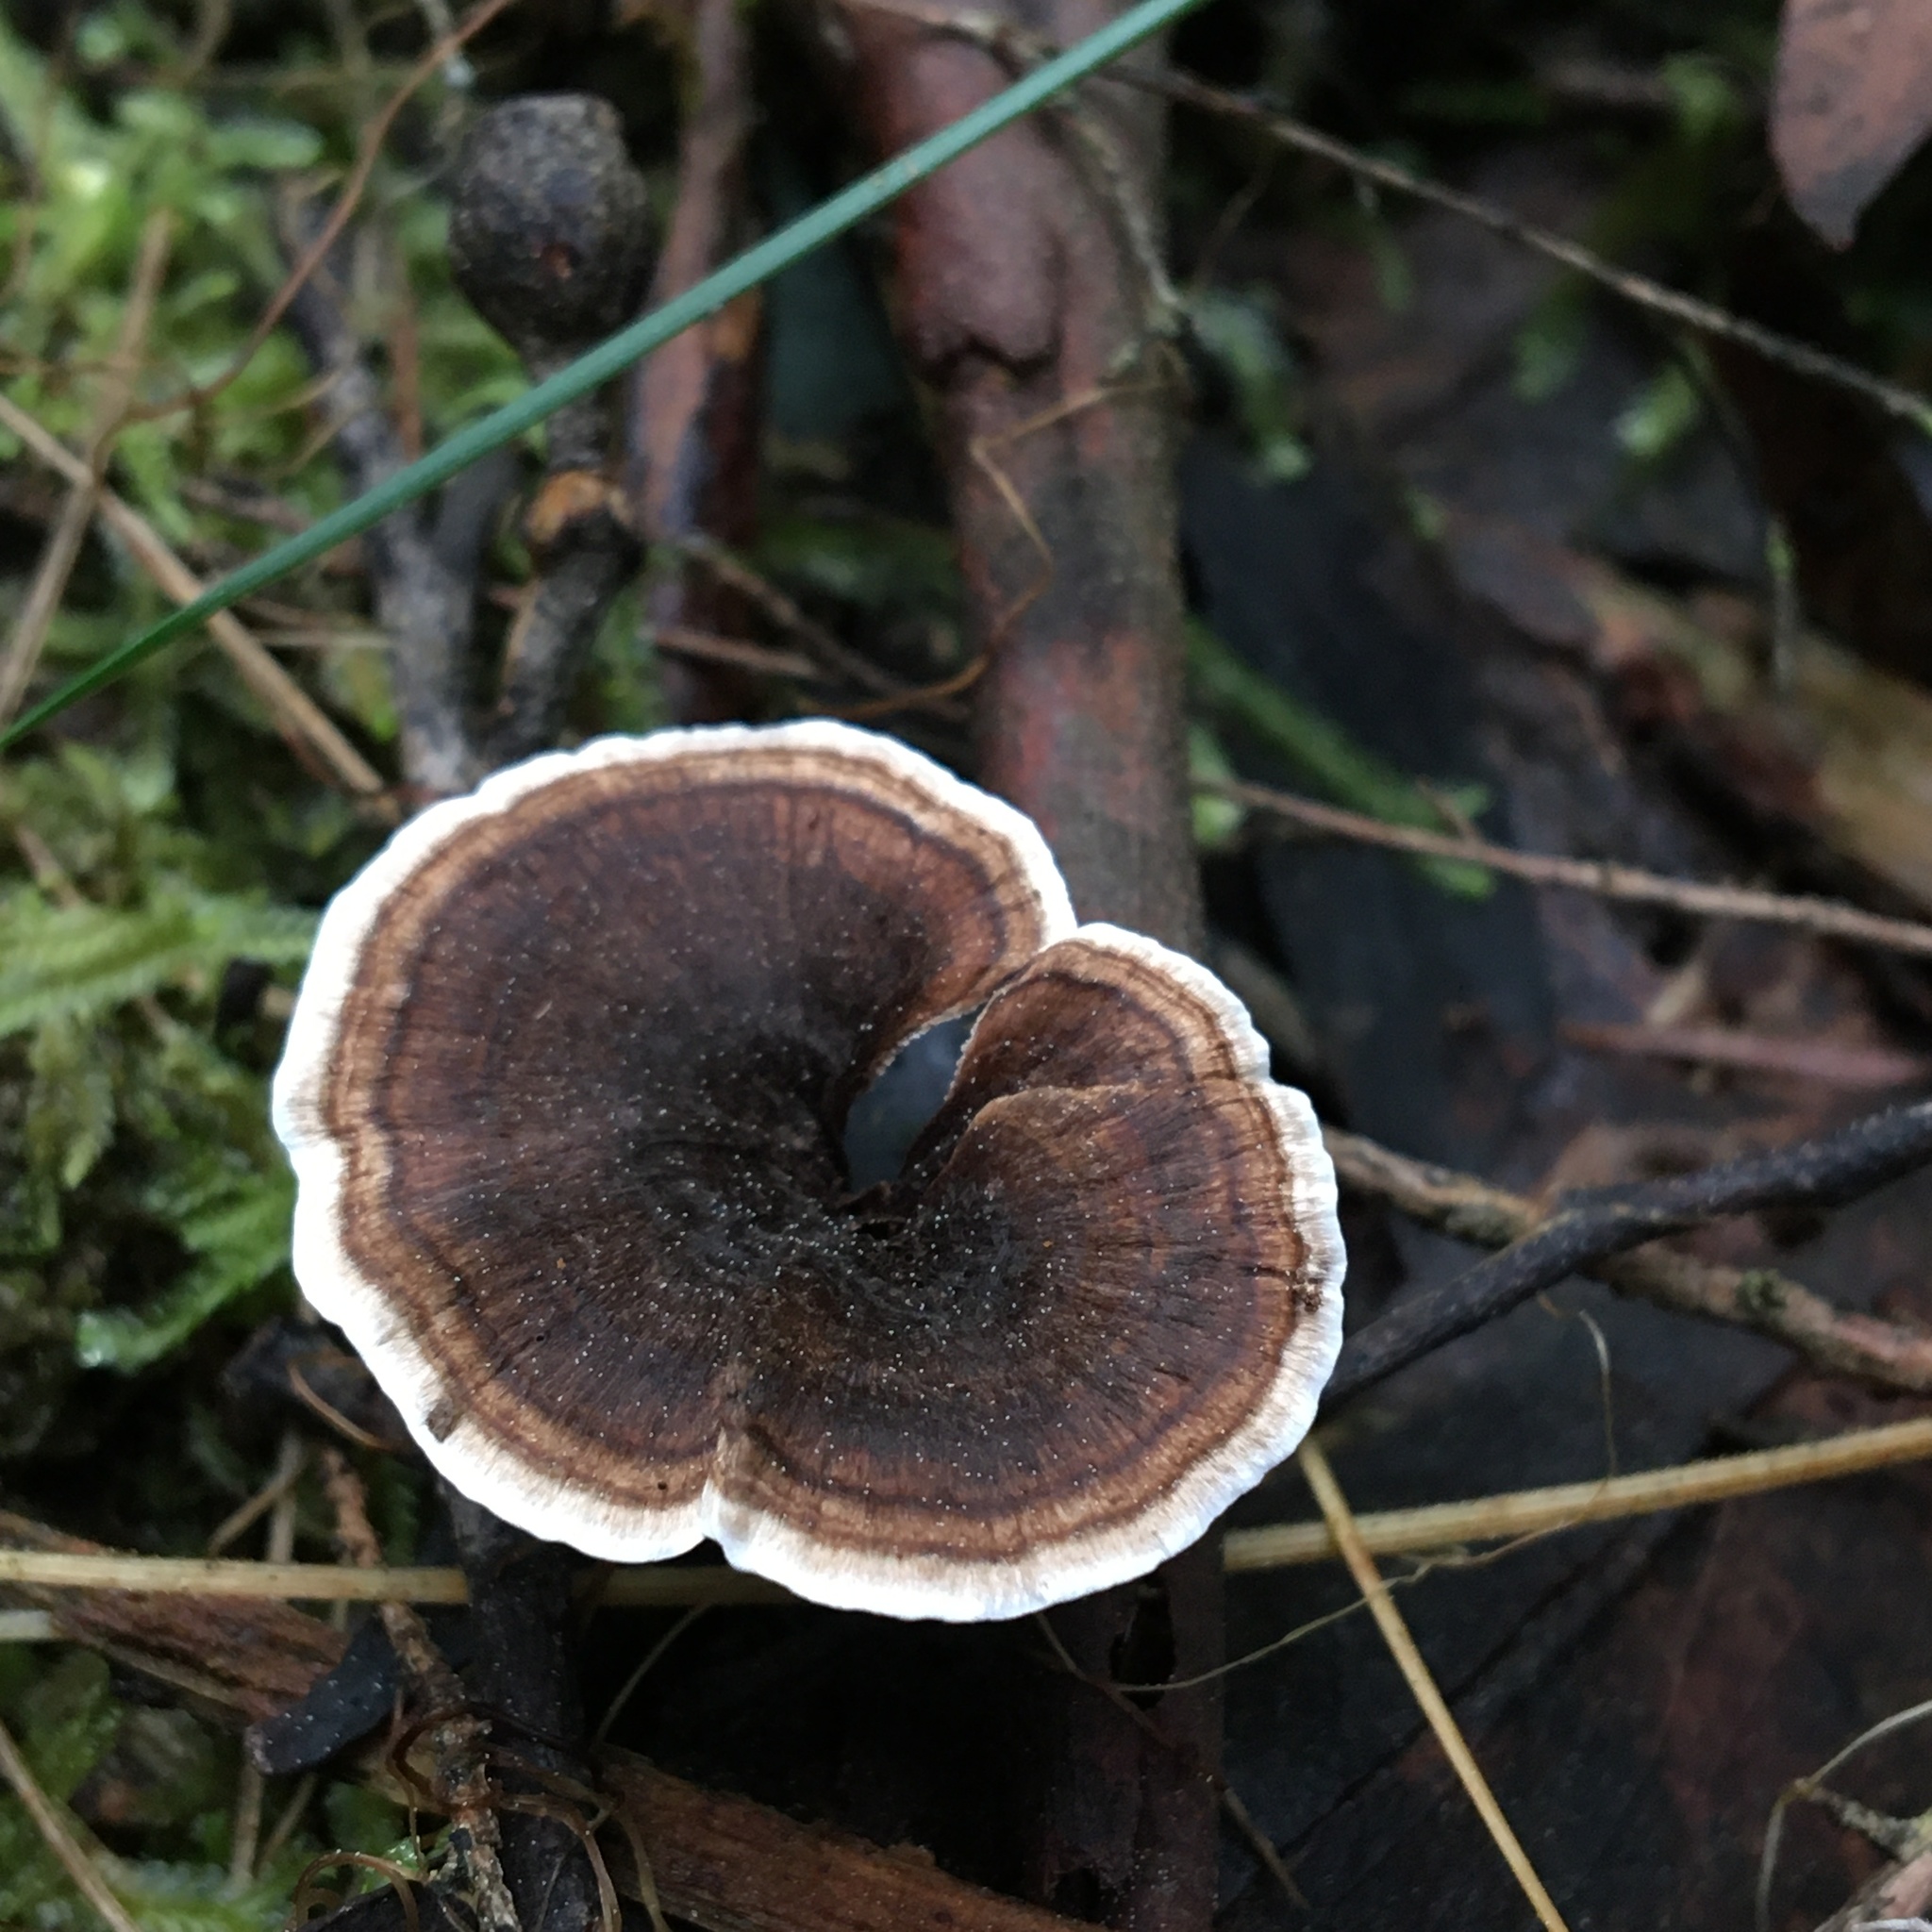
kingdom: Fungi
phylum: Basidiomycota
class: Agaricomycetes
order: Thelephorales
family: Thelephoraceae
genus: Phellodon
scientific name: Phellodon niger
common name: Black tooth
